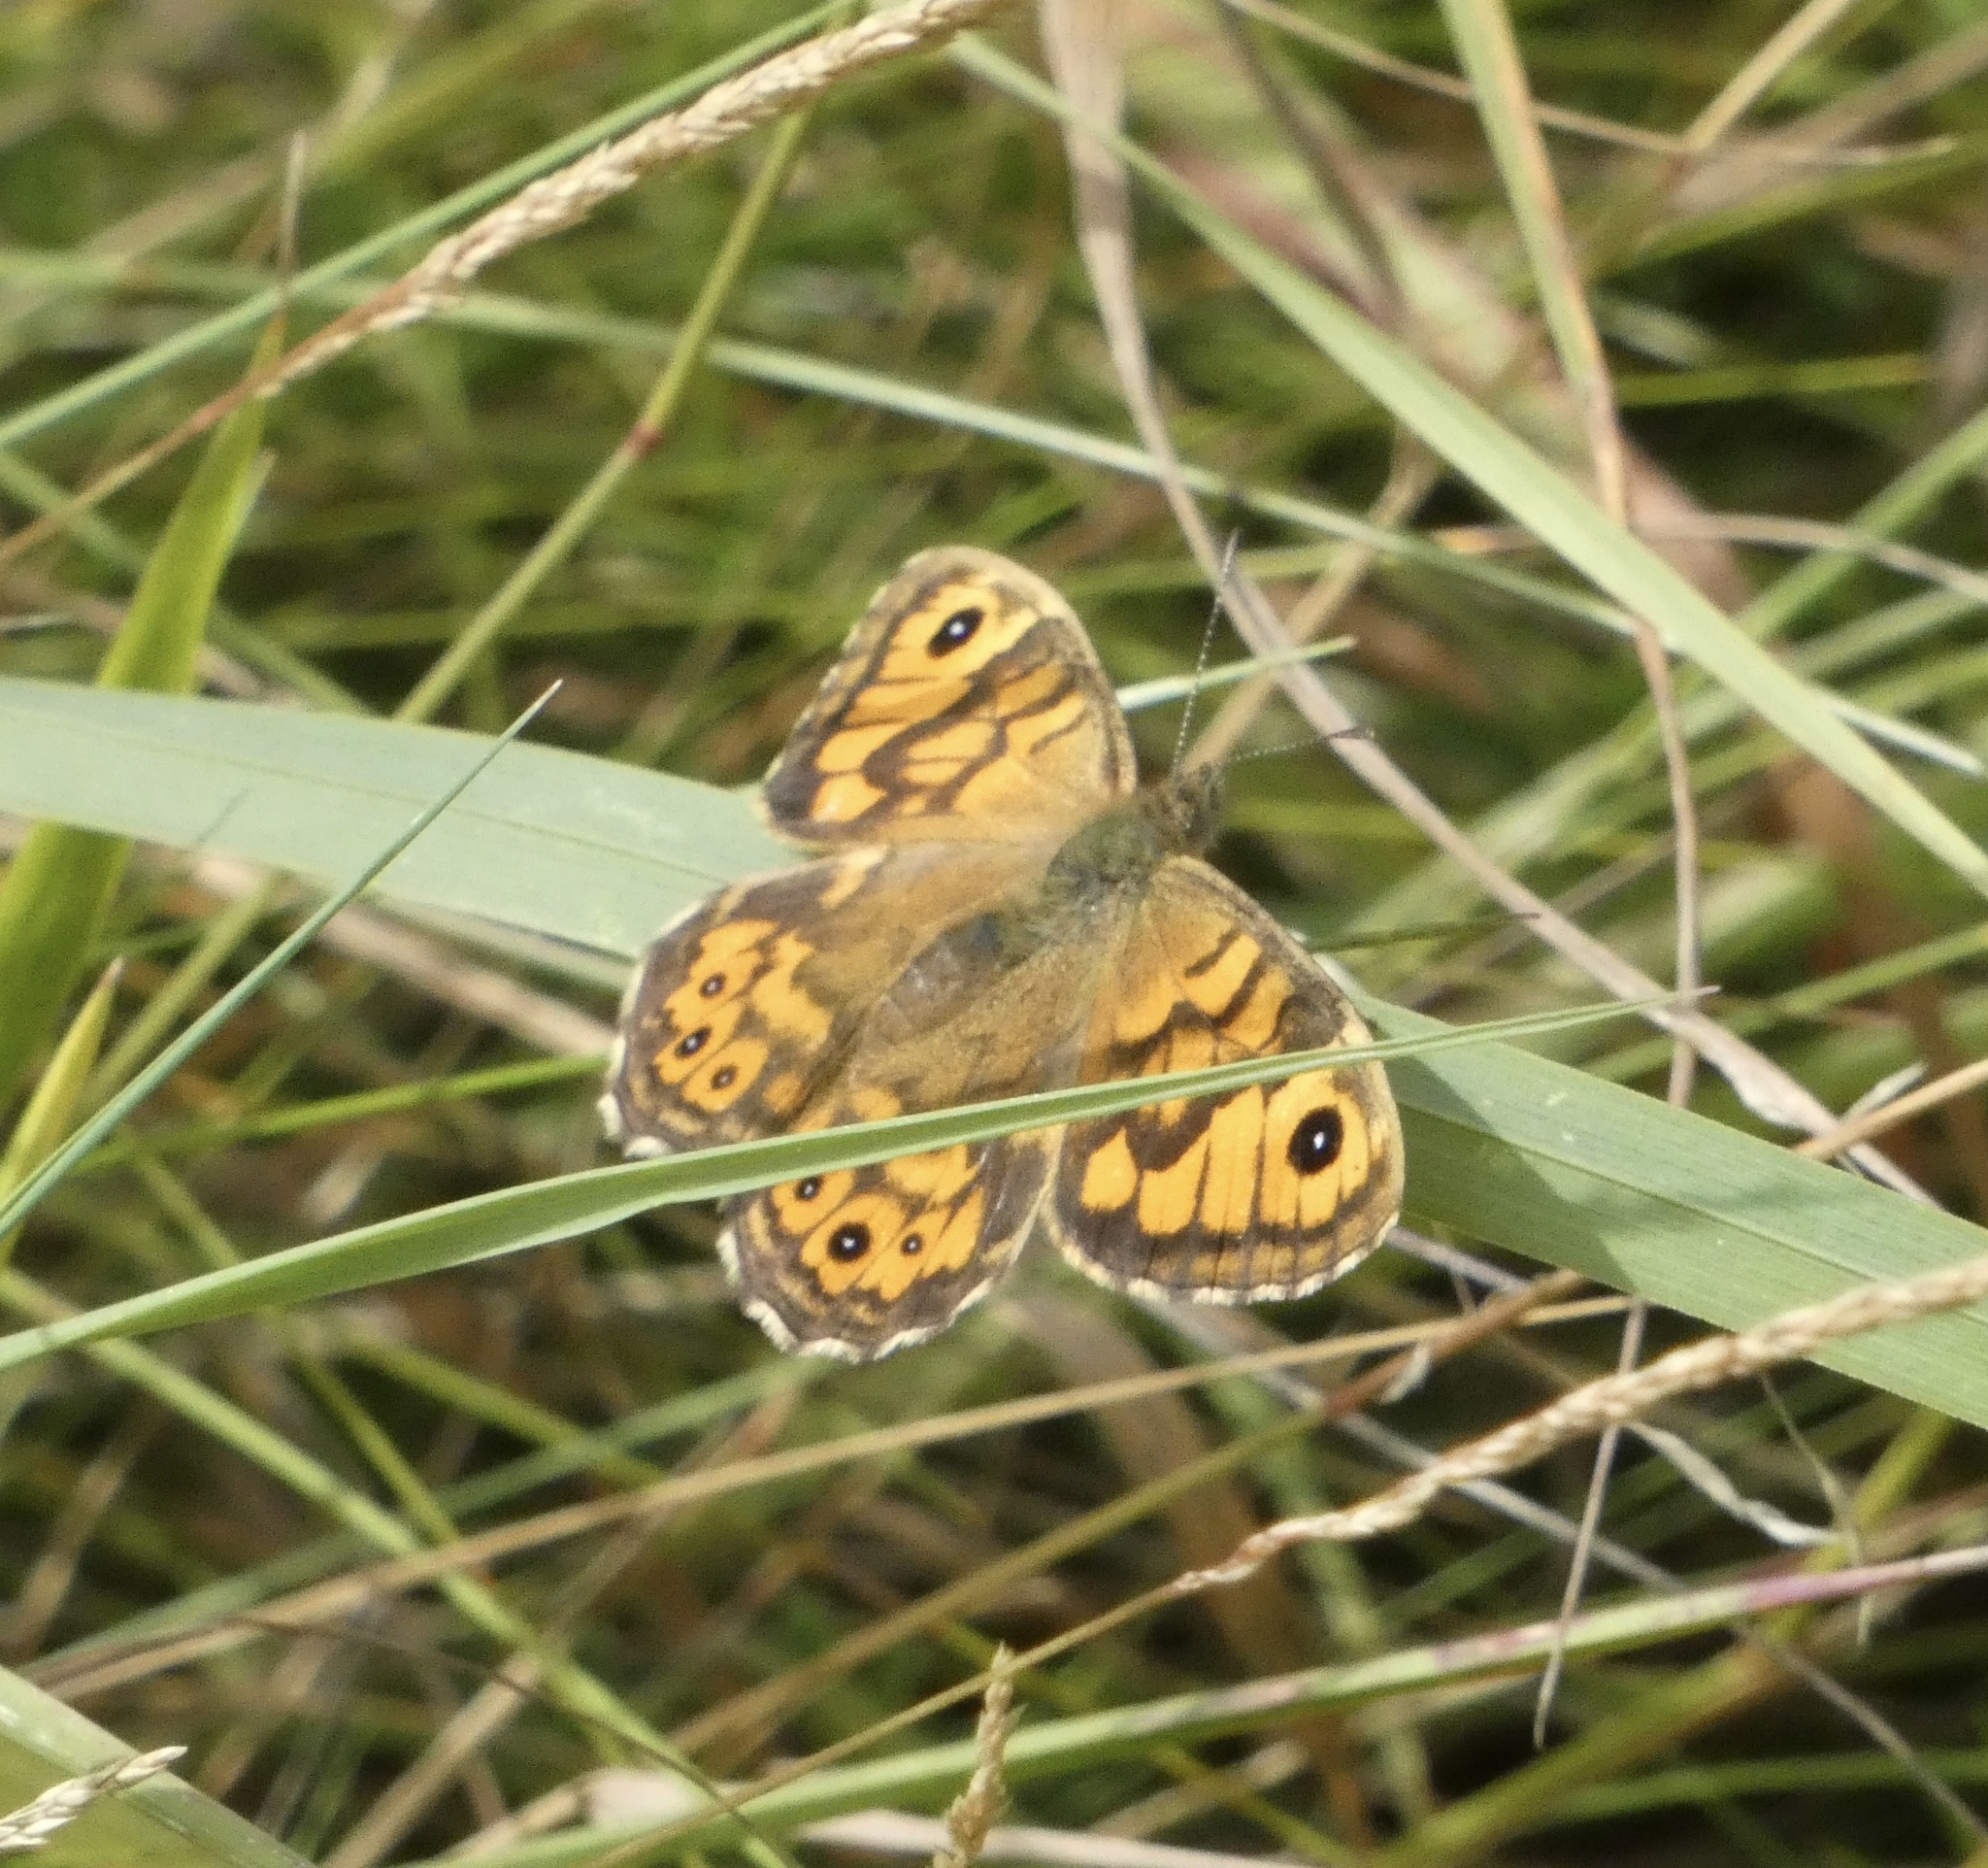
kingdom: Animalia
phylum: Arthropoda
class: Insecta
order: Lepidoptera
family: Nymphalidae
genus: Pararge
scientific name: Pararge Lasiommata megera
